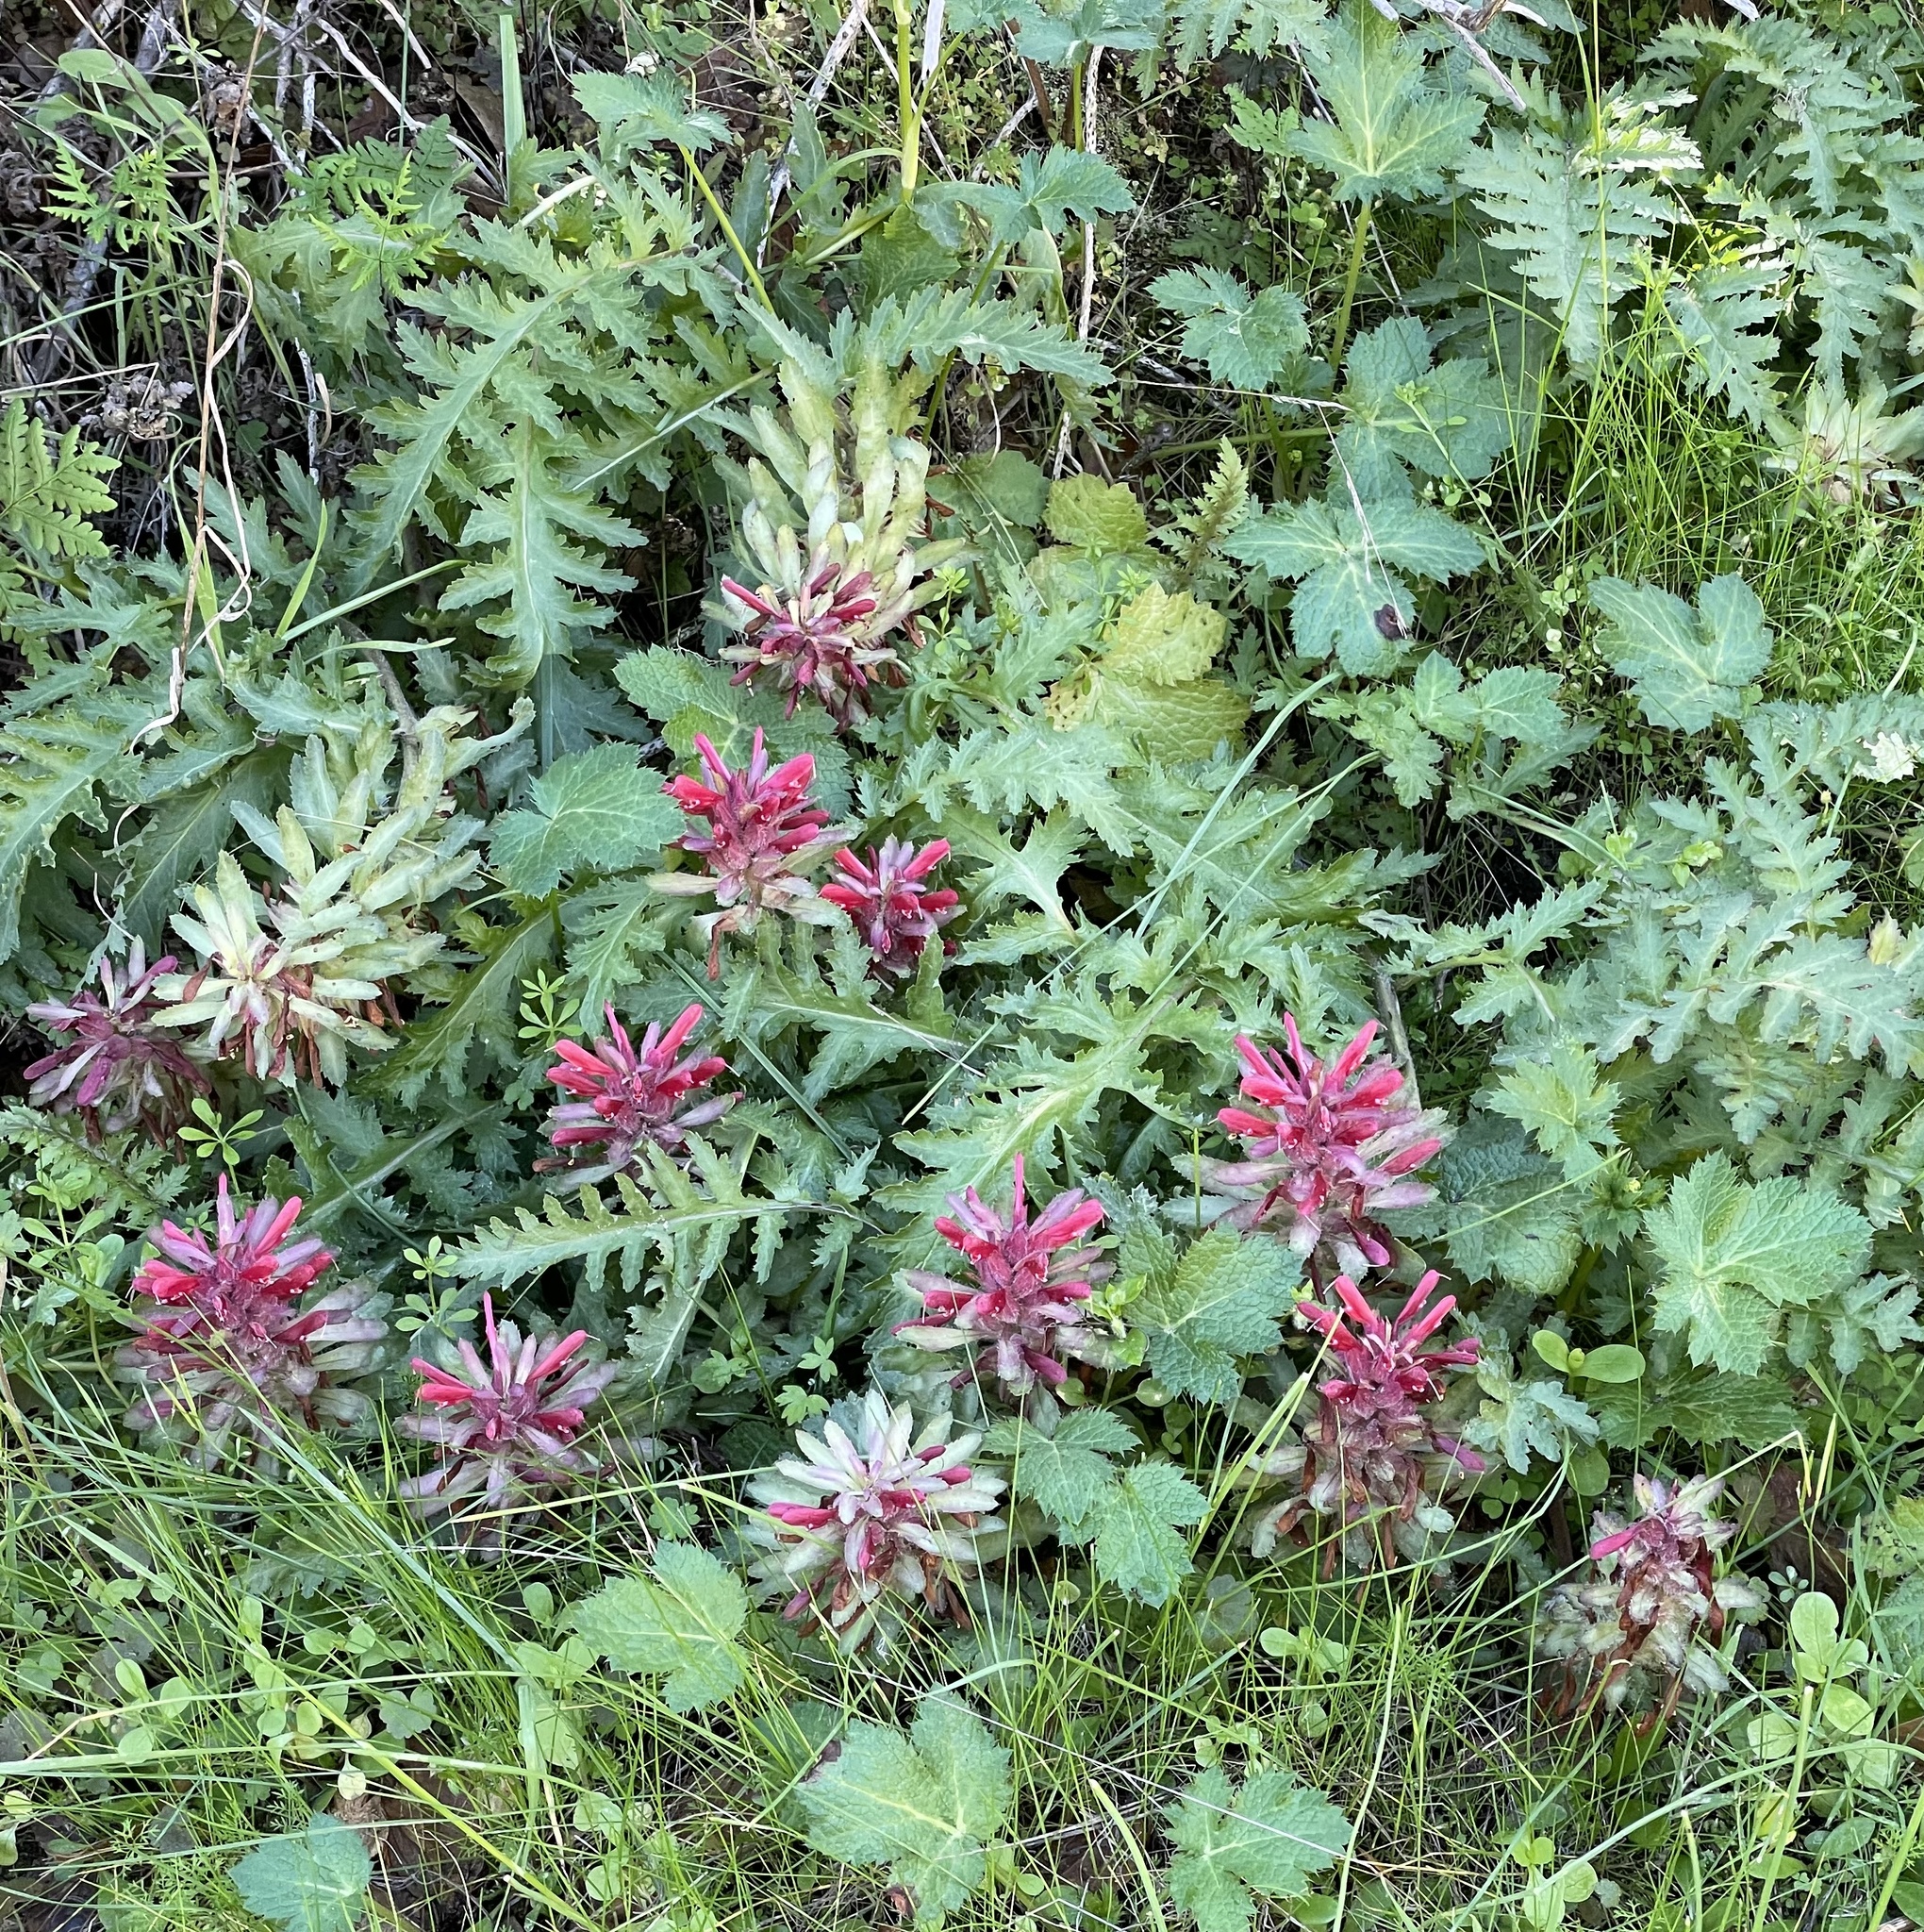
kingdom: Plantae
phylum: Tracheophyta
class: Magnoliopsida
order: Lamiales
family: Orobanchaceae
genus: Pedicularis
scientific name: Pedicularis densiflora
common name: Indian warrior
